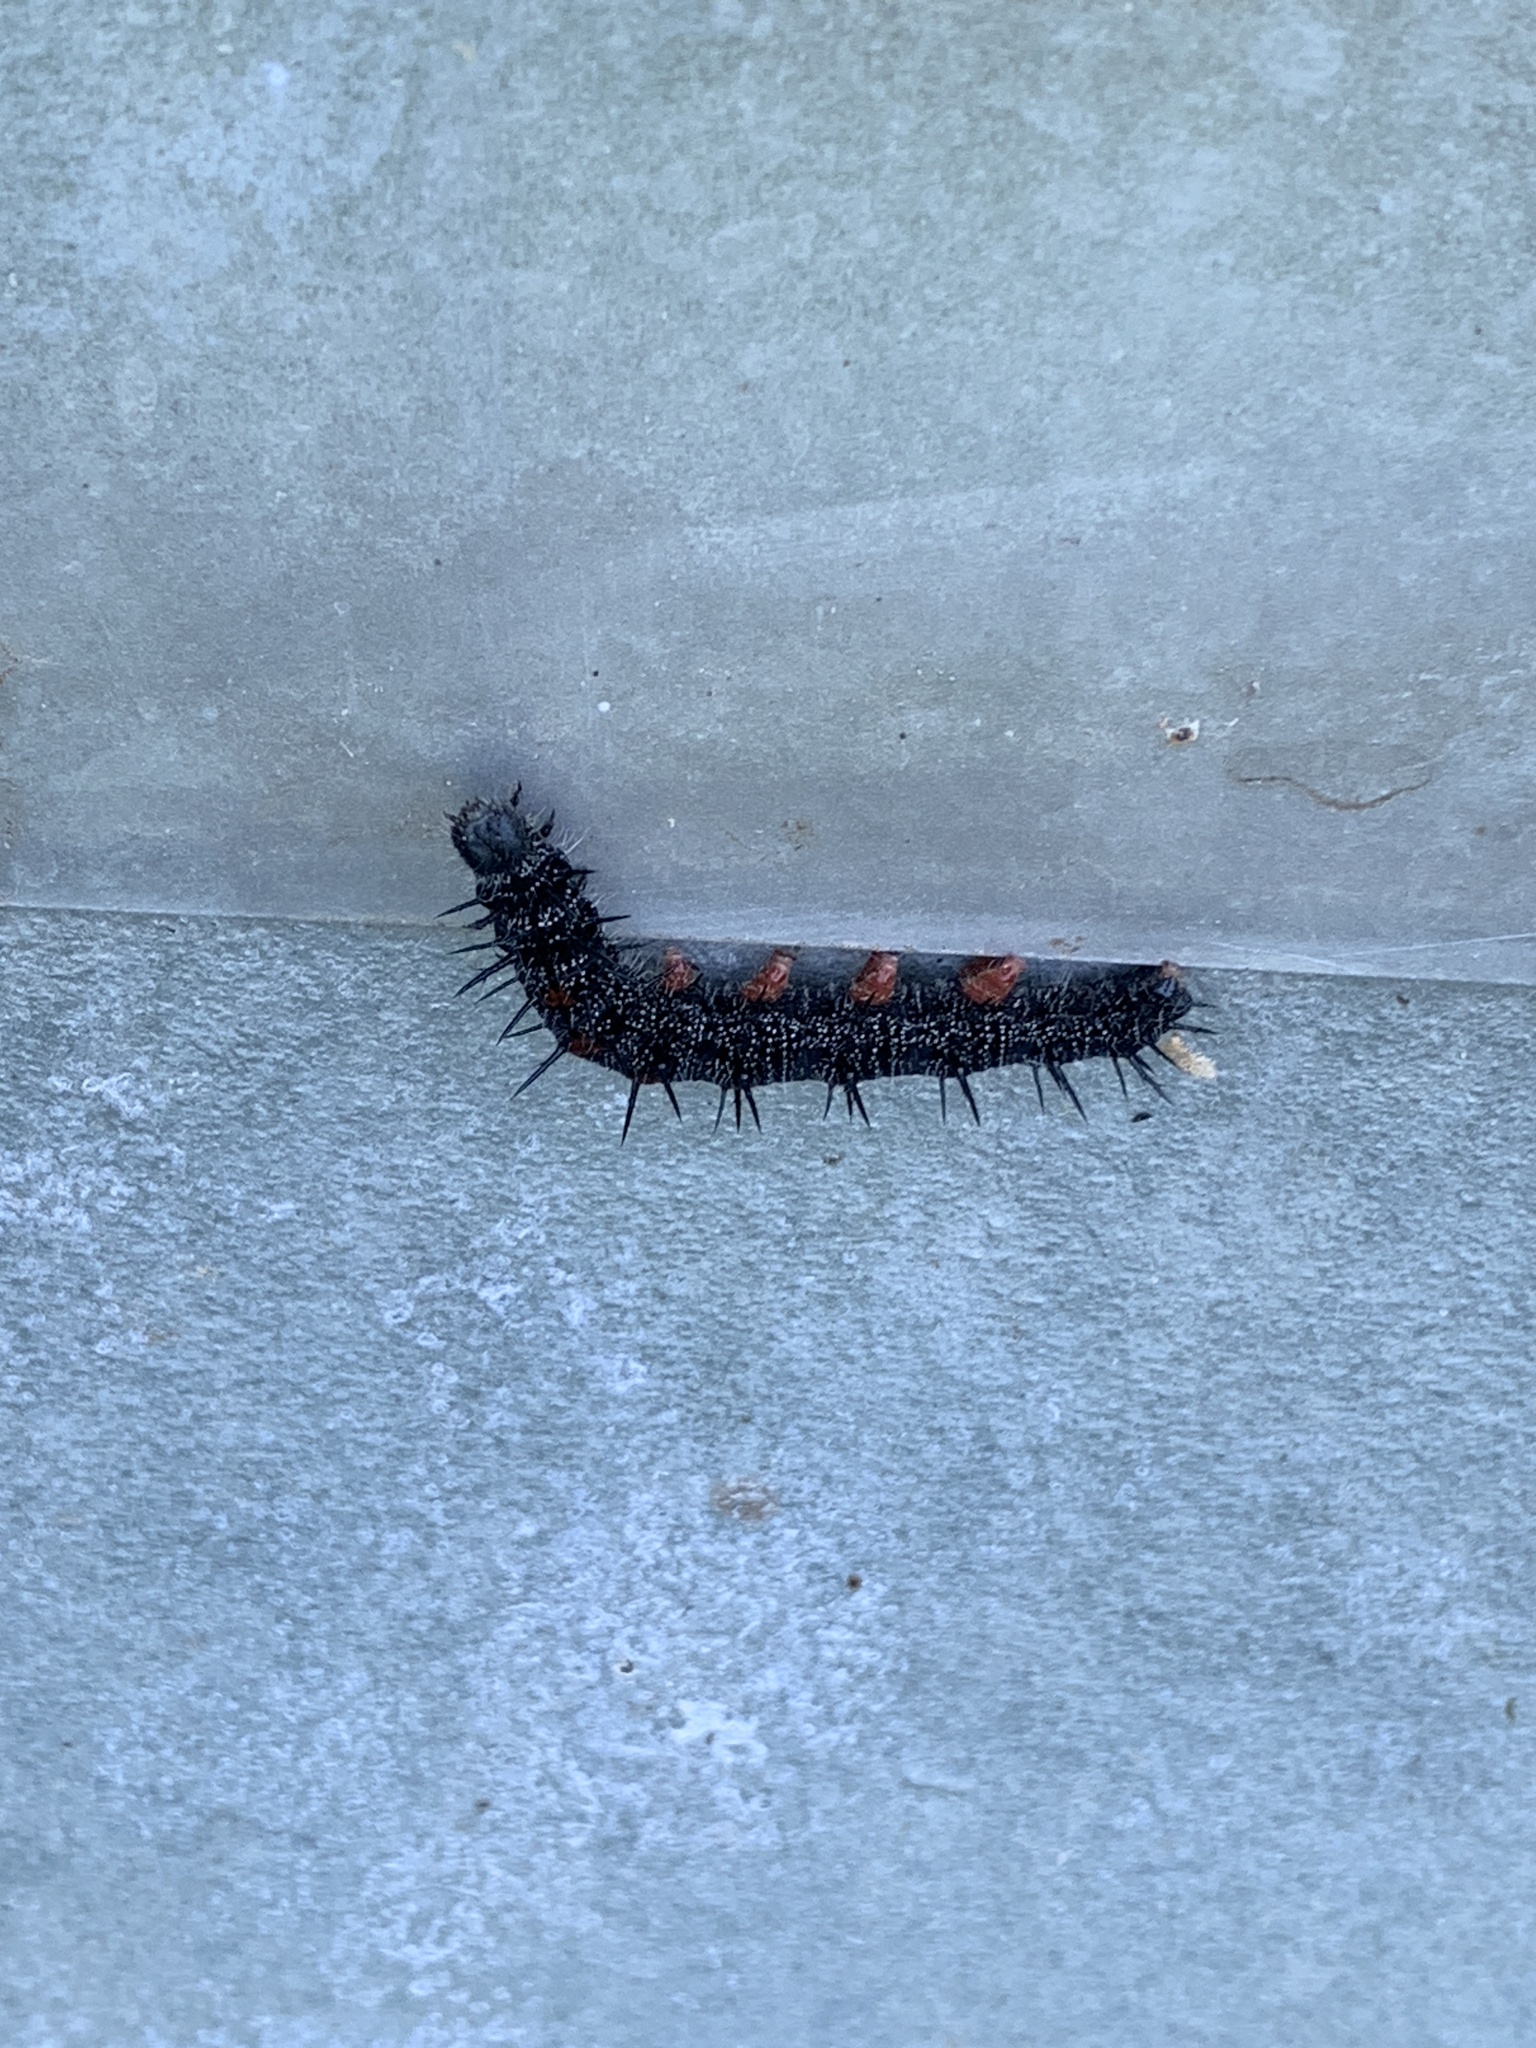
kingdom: Animalia
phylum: Arthropoda
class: Insecta
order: Lepidoptera
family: Nymphalidae
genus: Nymphalis
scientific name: Nymphalis antiopa
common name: Camberwell beauty
